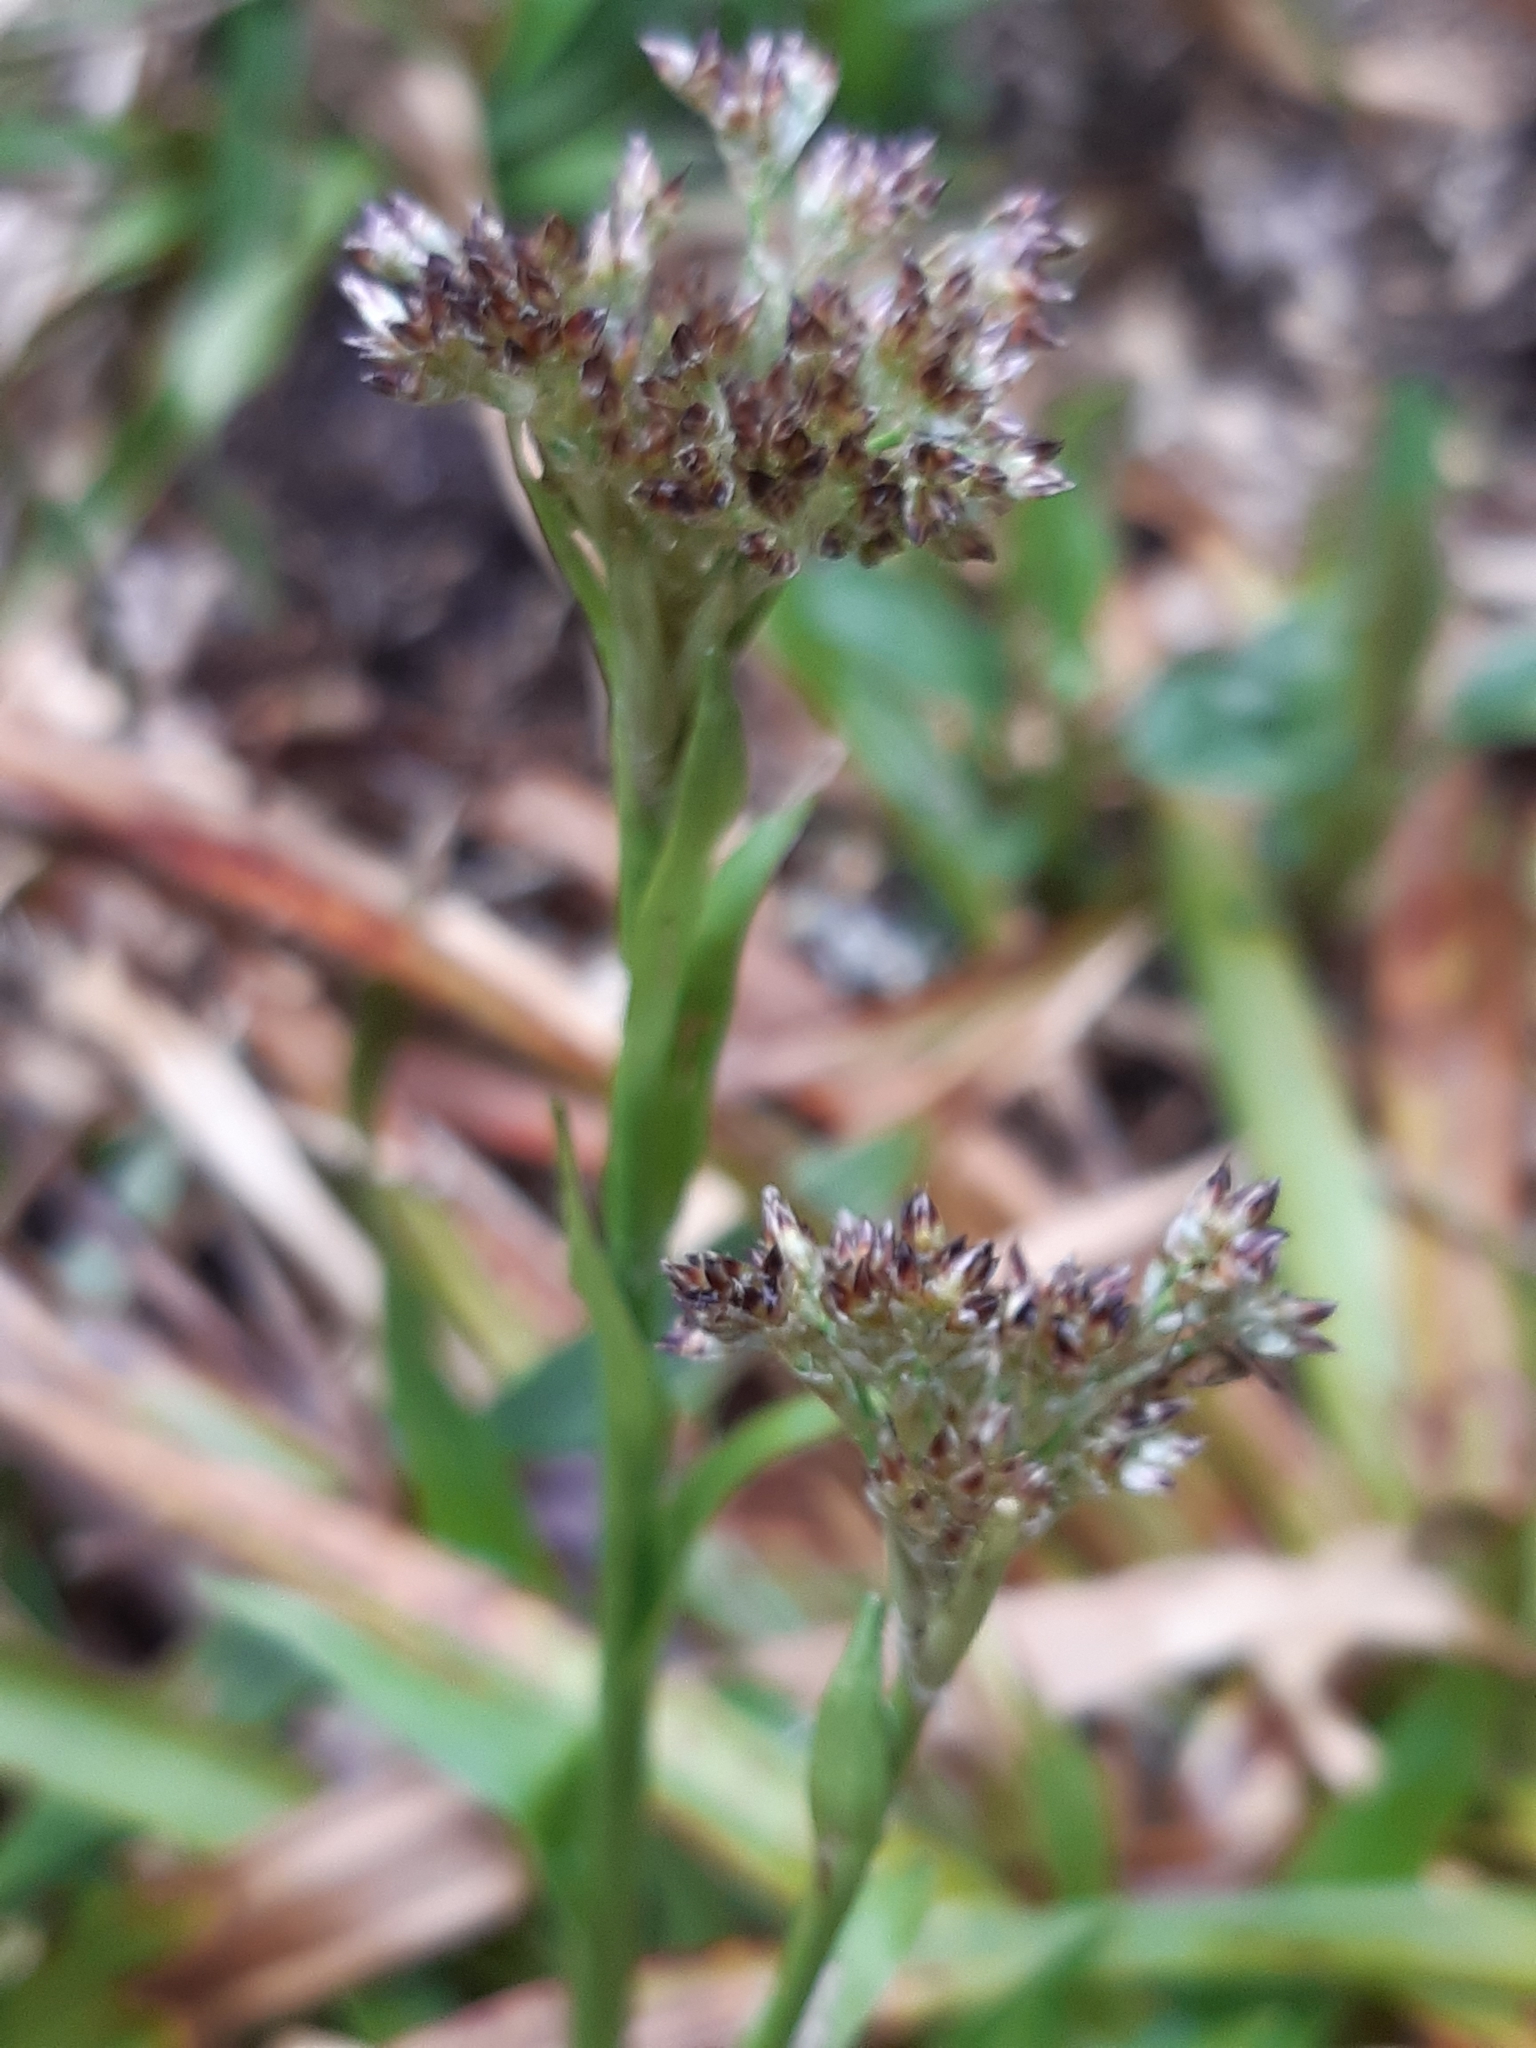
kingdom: Plantae
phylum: Tracheophyta
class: Liliopsida
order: Poales
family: Juncaceae
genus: Luzula
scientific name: Luzula sylvatica
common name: Great wood-rush
